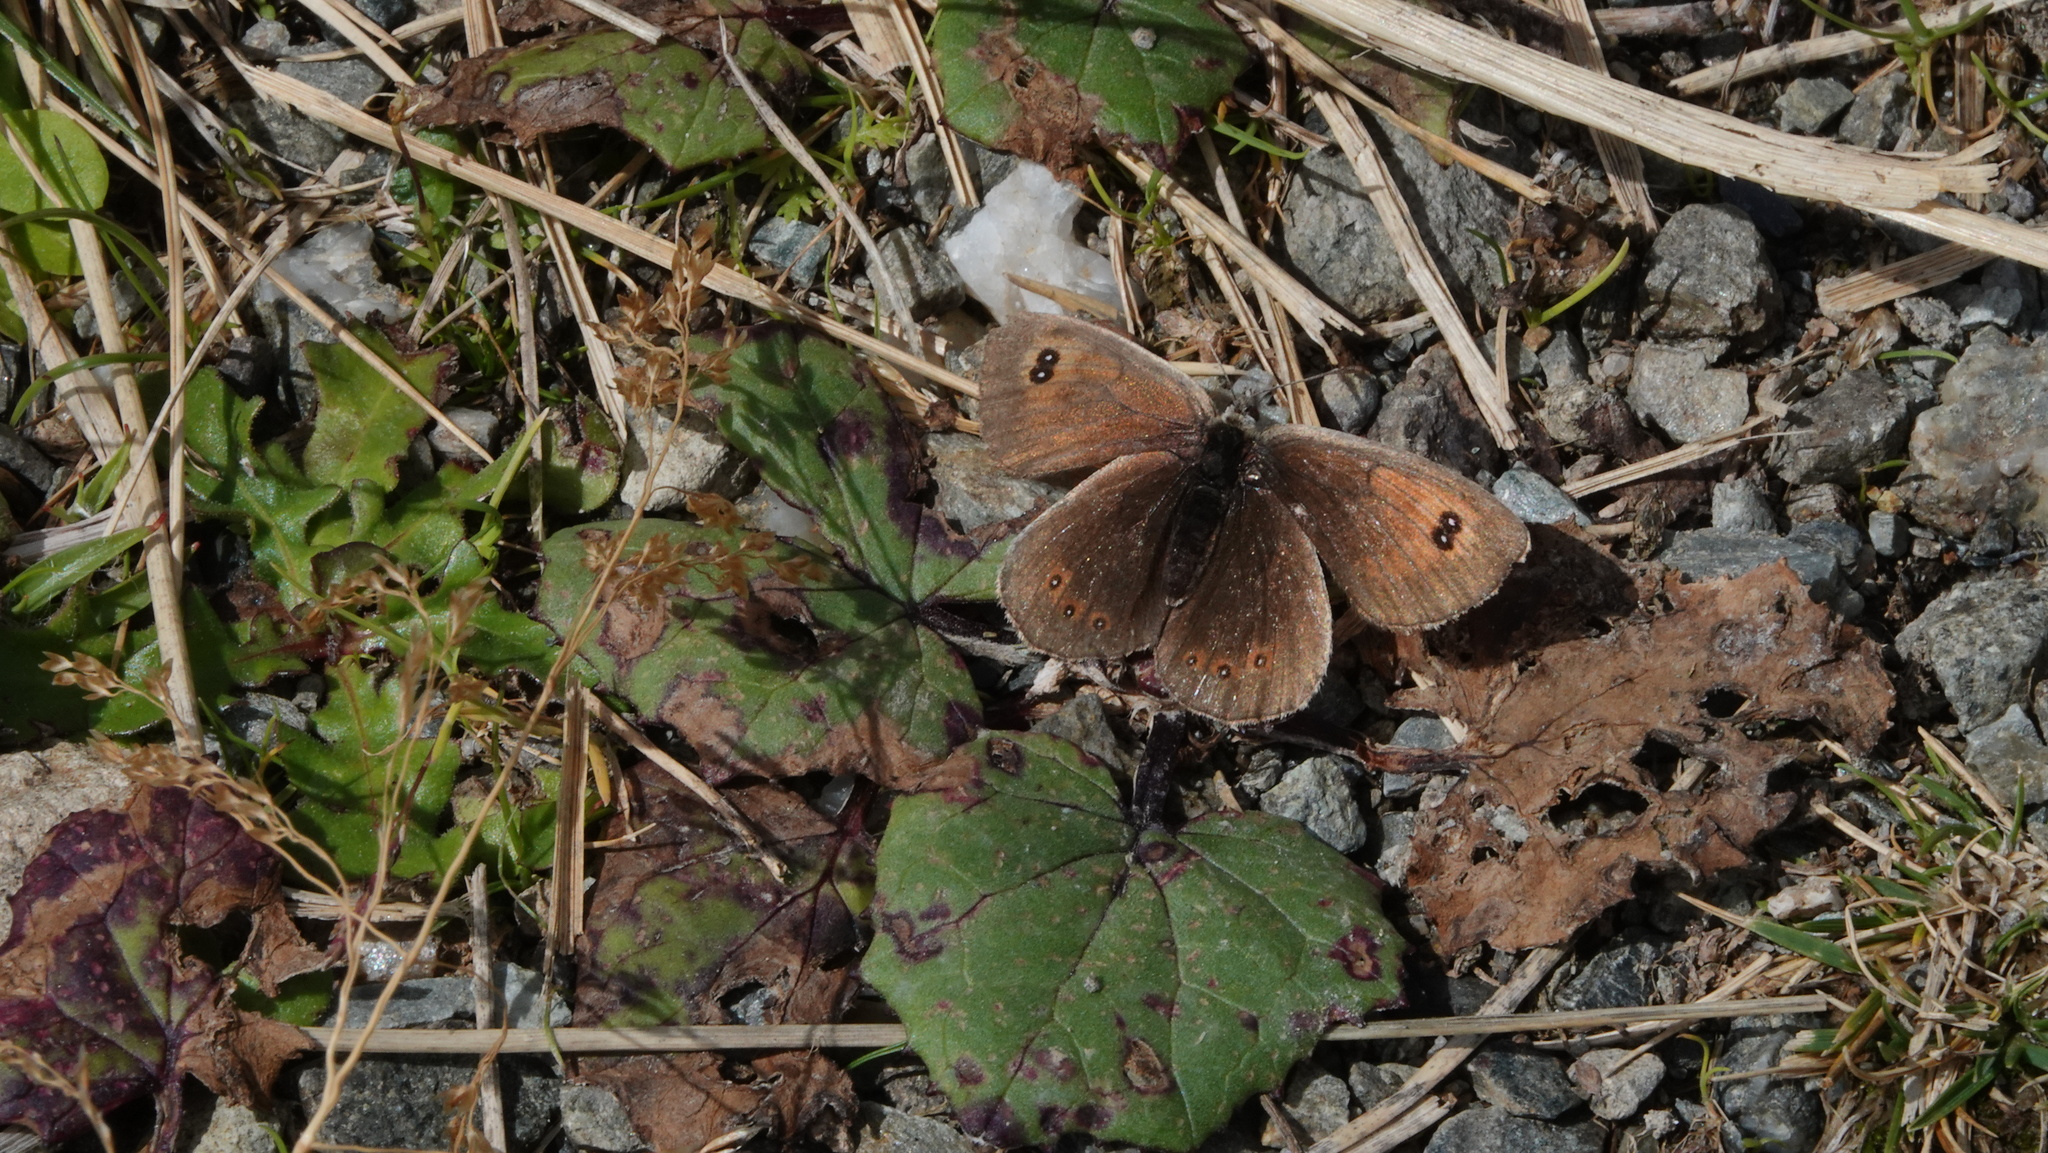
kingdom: Animalia
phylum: Arthropoda
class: Insecta
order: Lepidoptera
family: Nymphalidae
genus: Erebia
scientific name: Erebia cassioides
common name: Common brassy ringlet
